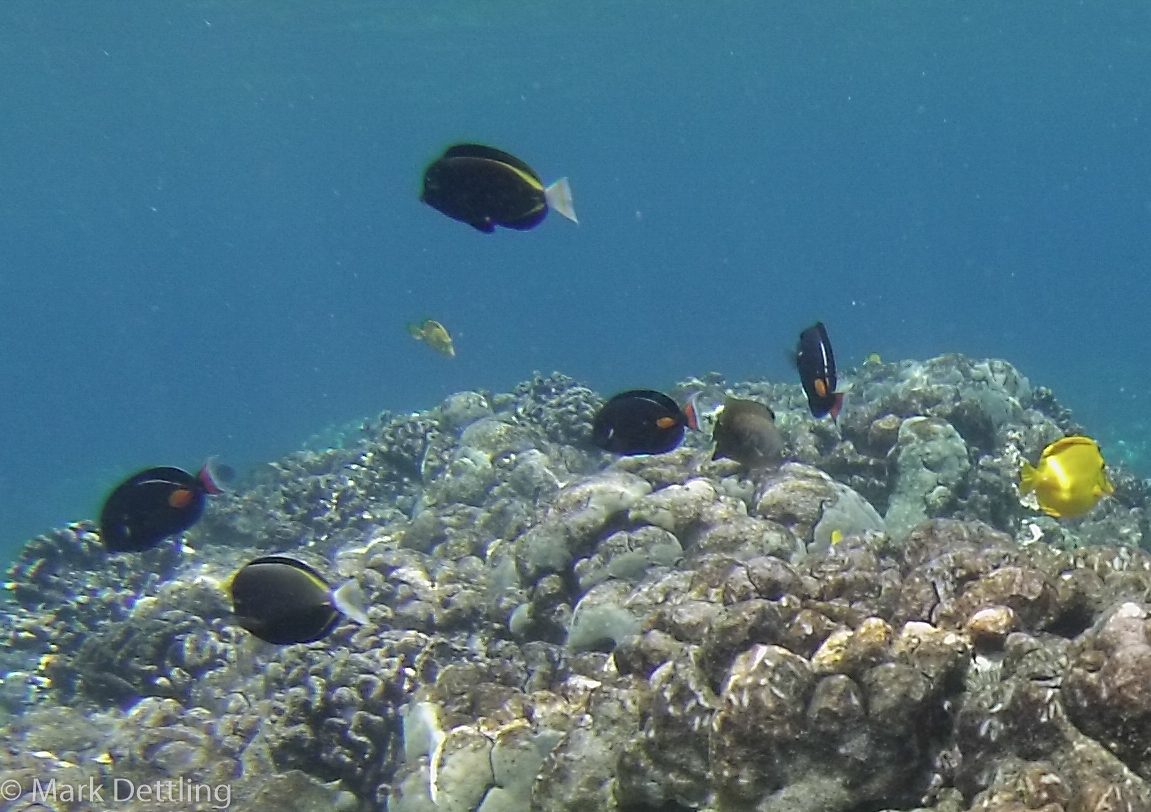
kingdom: Animalia
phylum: Chordata
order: Perciformes
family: Acanthuridae
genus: Acanthurus
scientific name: Acanthurus nigricans
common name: Whitecheek surgeonfish
